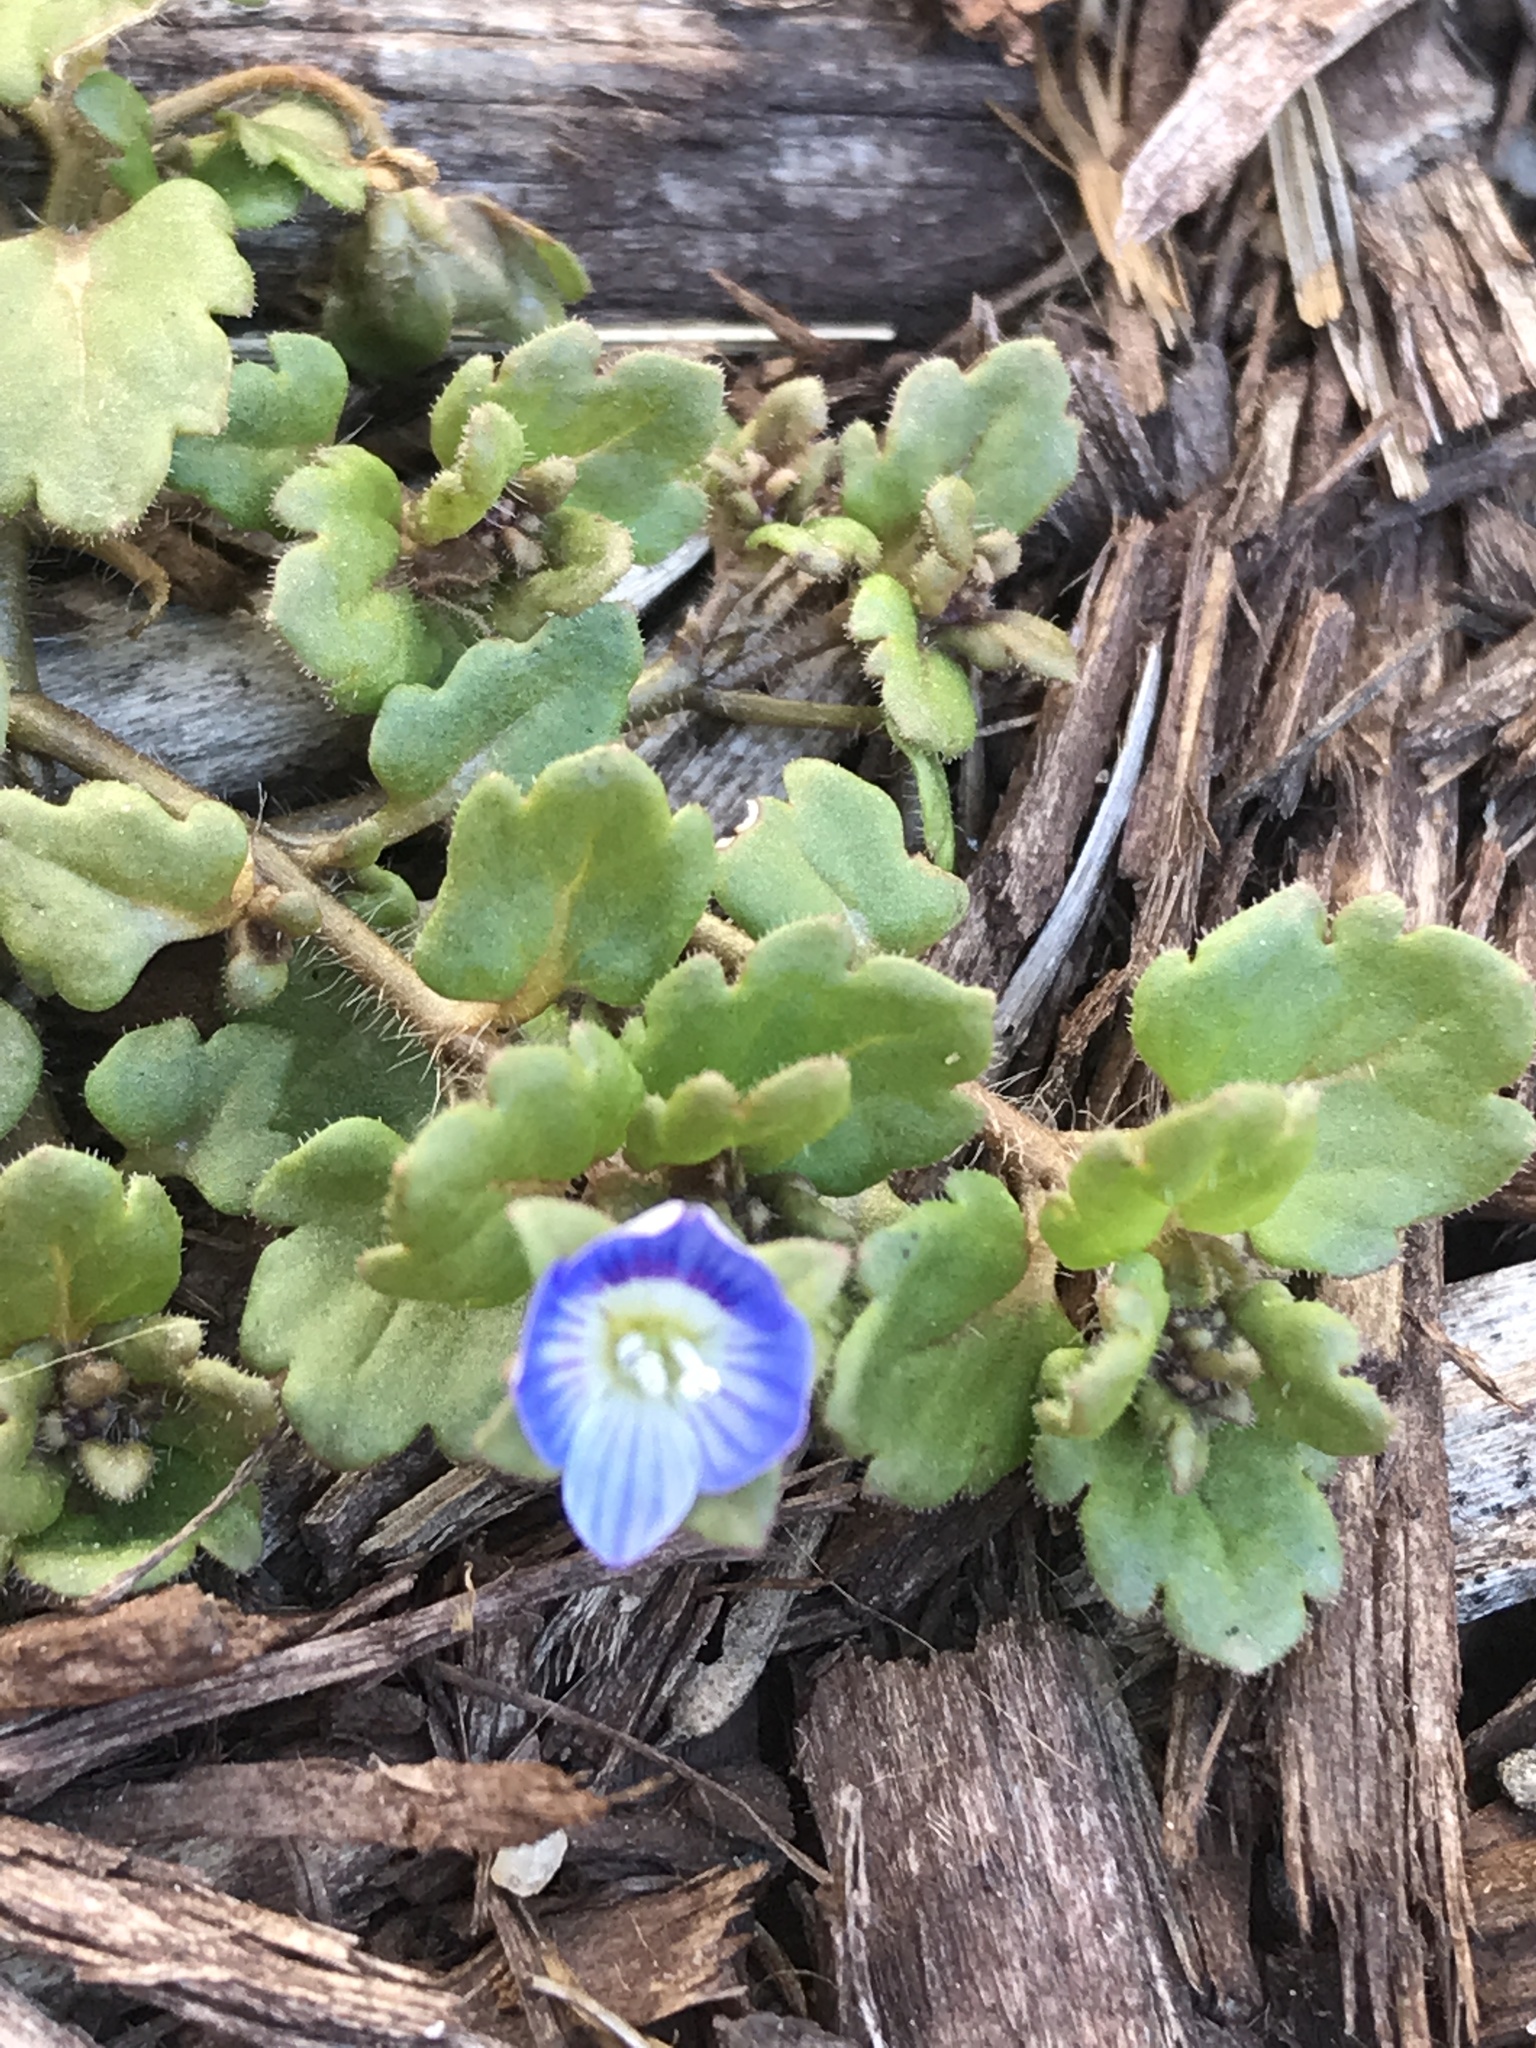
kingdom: Plantae
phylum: Tracheophyta
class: Magnoliopsida
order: Lamiales
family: Plantaginaceae
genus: Veronica
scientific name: Veronica polita
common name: Grey field-speedwell
